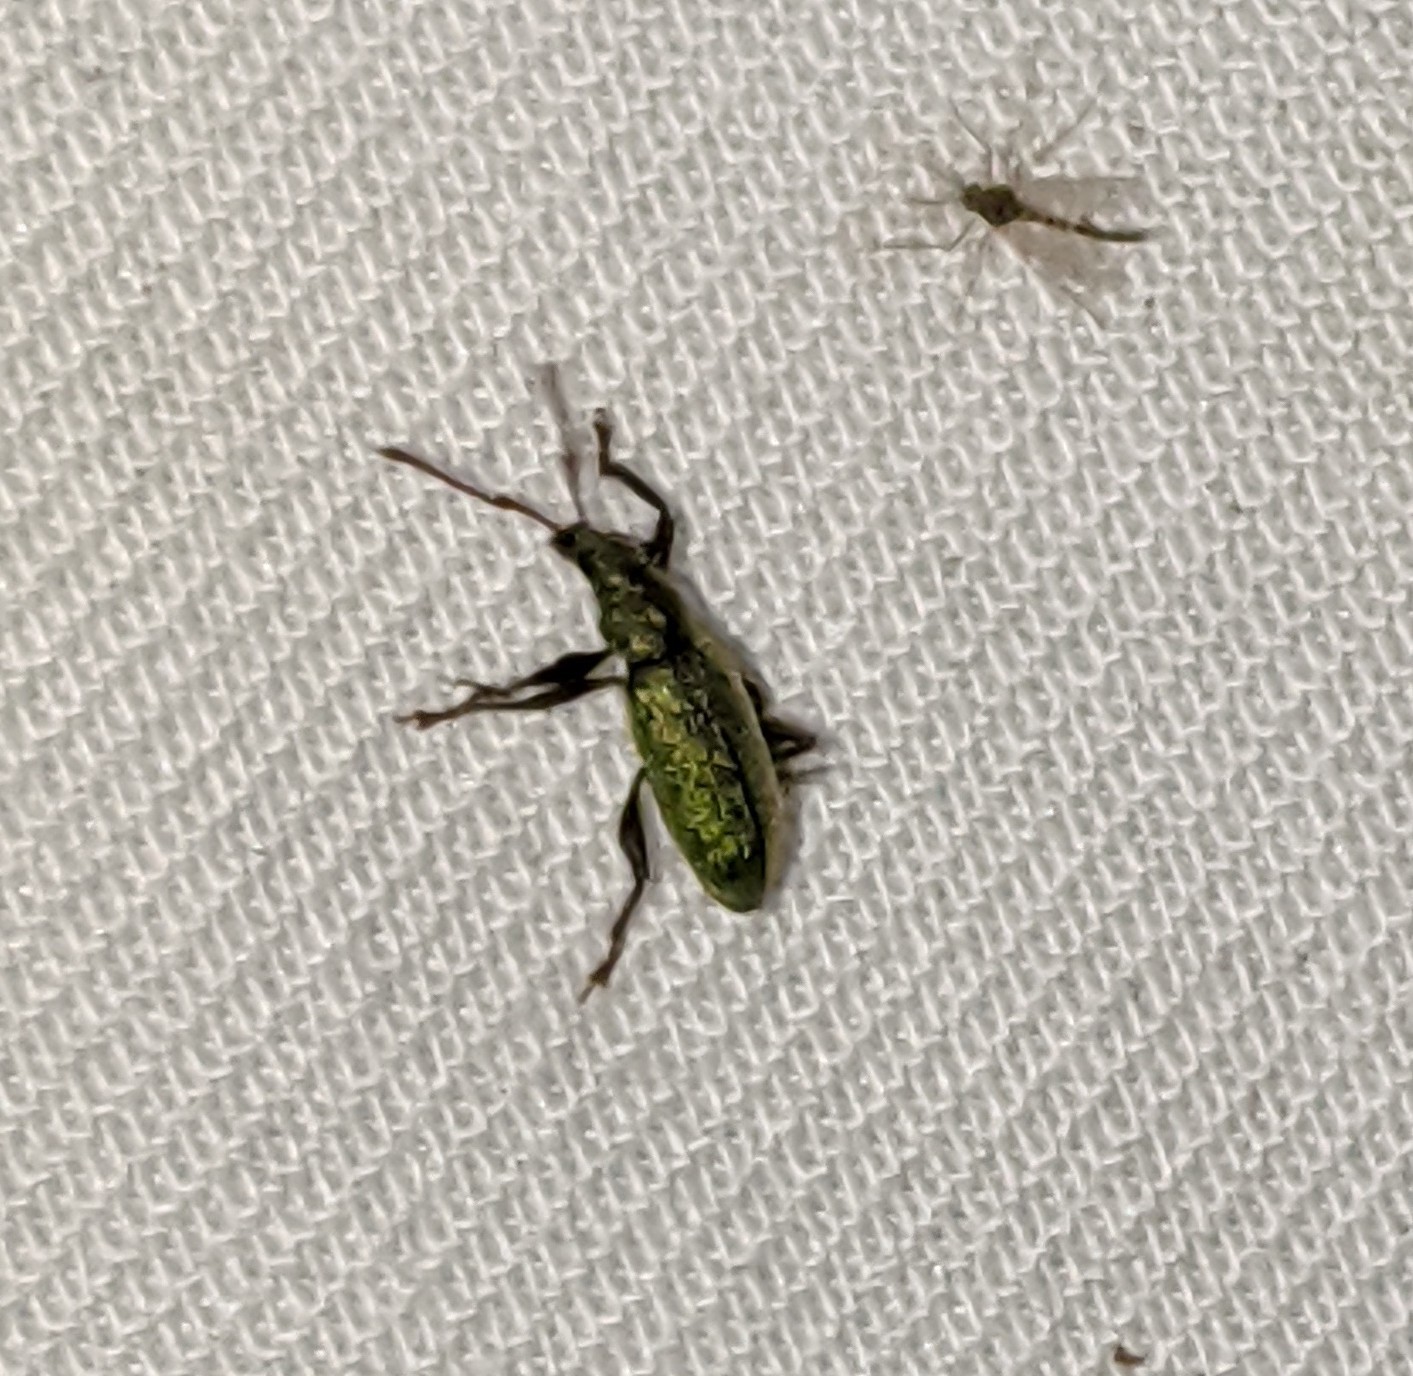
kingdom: Animalia
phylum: Arthropoda
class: Insecta
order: Coleoptera
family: Curculionidae
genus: Parascythopus
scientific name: Parascythopus intrusus
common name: Weevil
